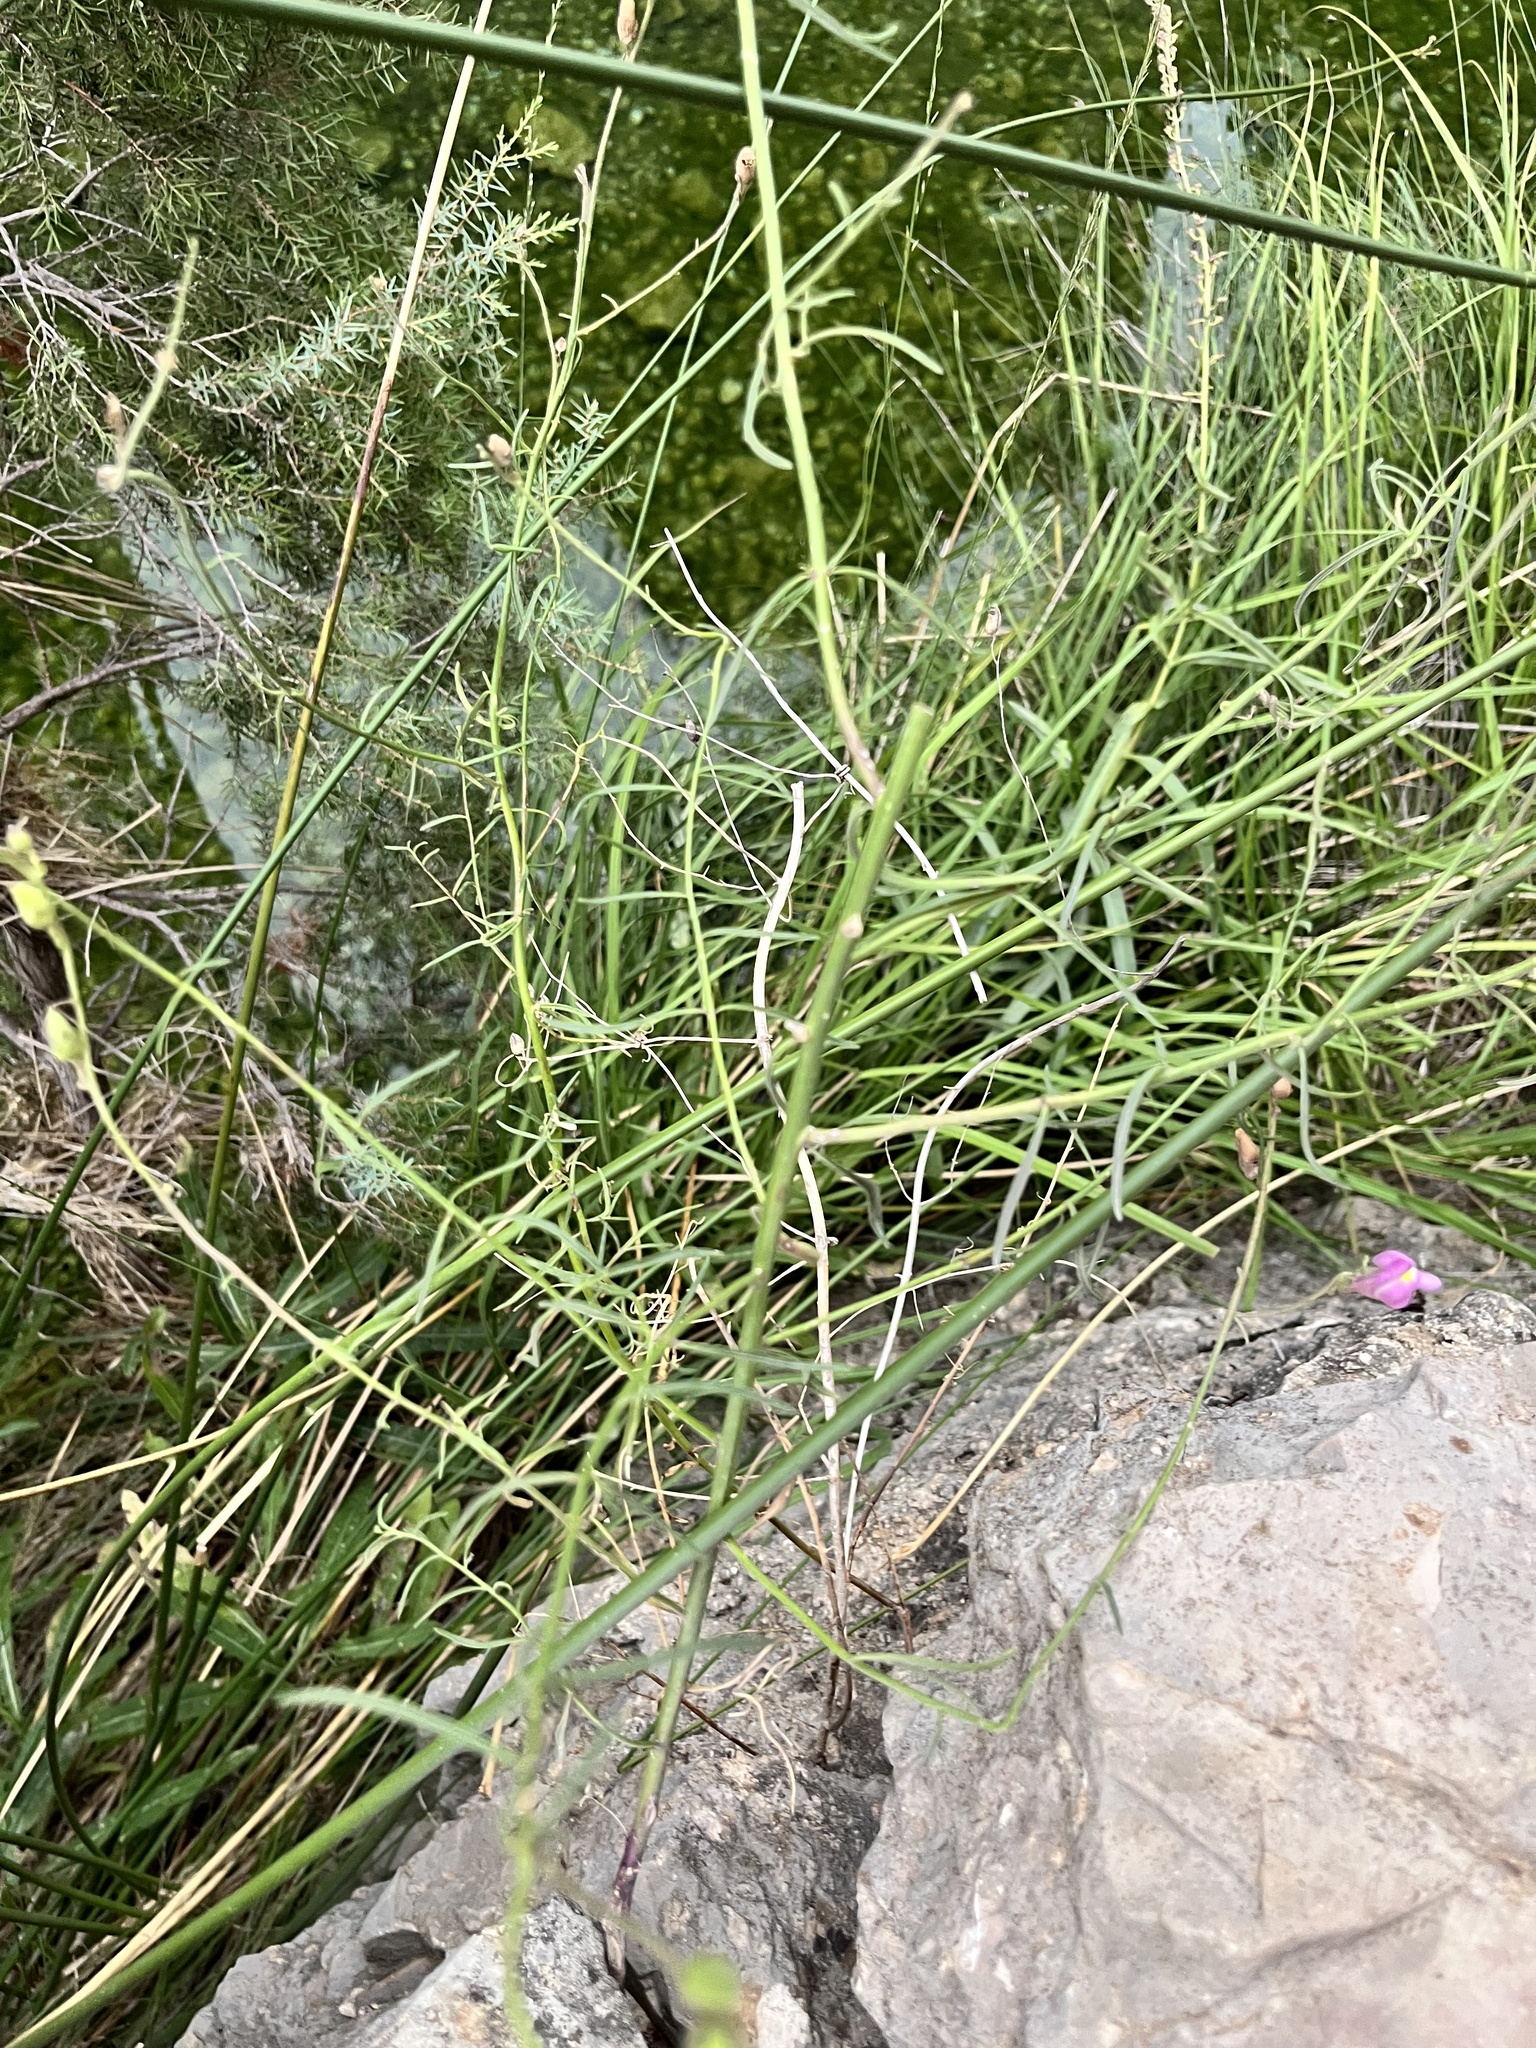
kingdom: Plantae
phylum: Tracheophyta
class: Magnoliopsida
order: Lamiales
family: Plantaginaceae
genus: Antirrhinum
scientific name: Antirrhinum litigiosum
